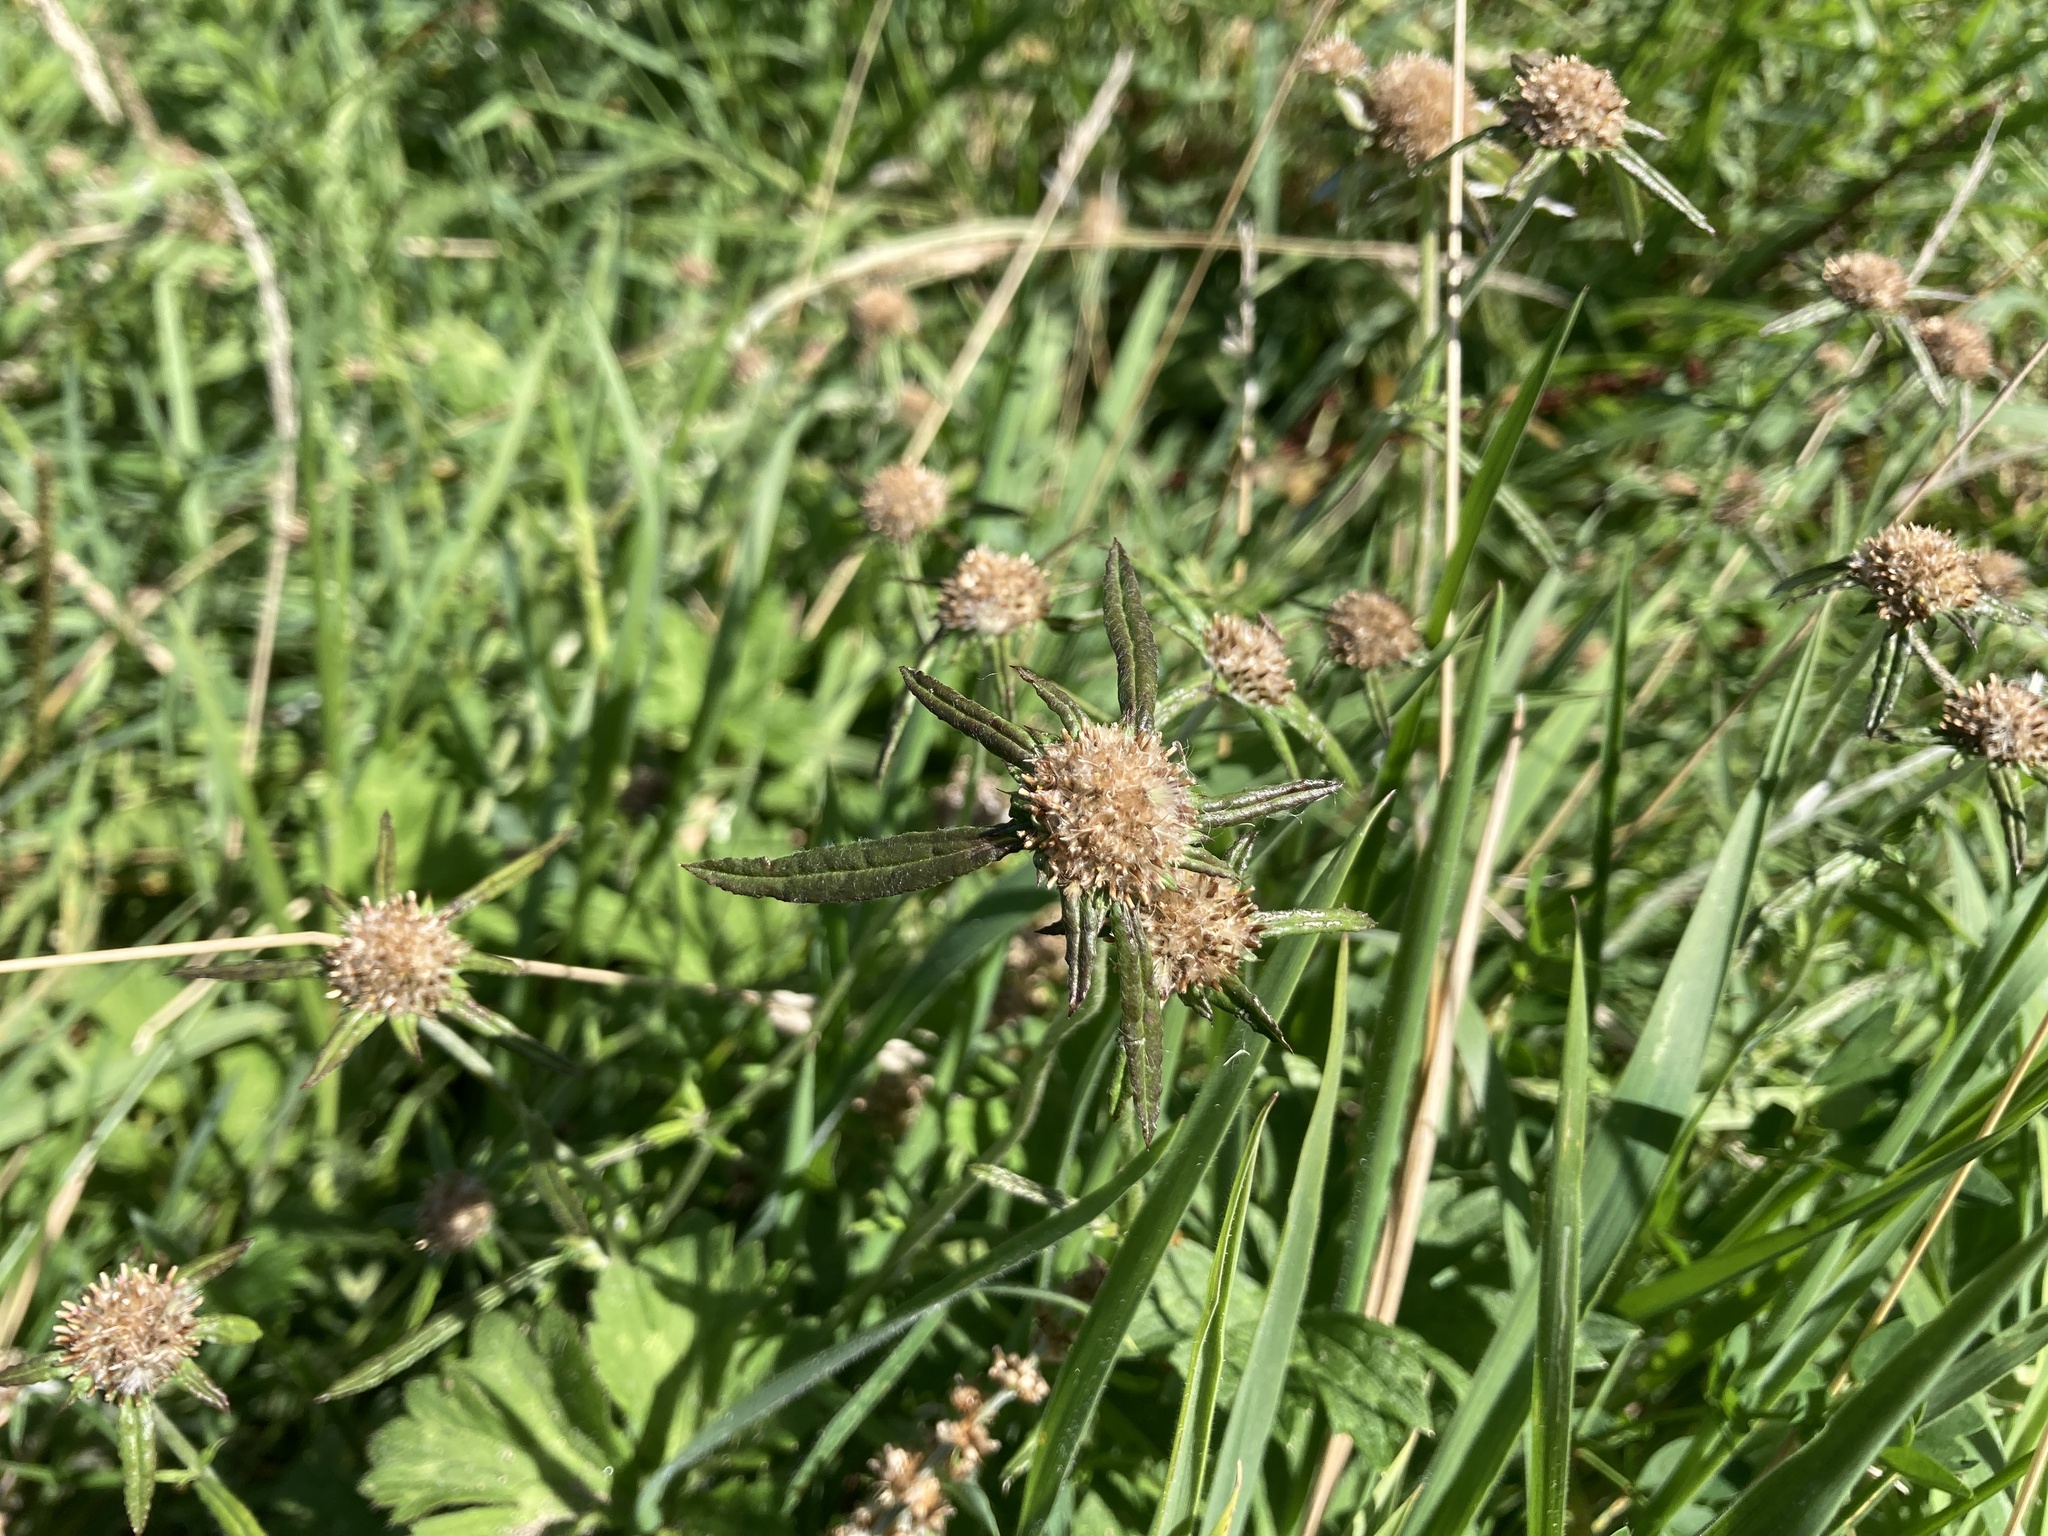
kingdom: Plantae
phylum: Tracheophyta
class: Magnoliopsida
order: Asterales
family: Asteraceae
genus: Euchiton
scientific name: Euchiton involucratus
